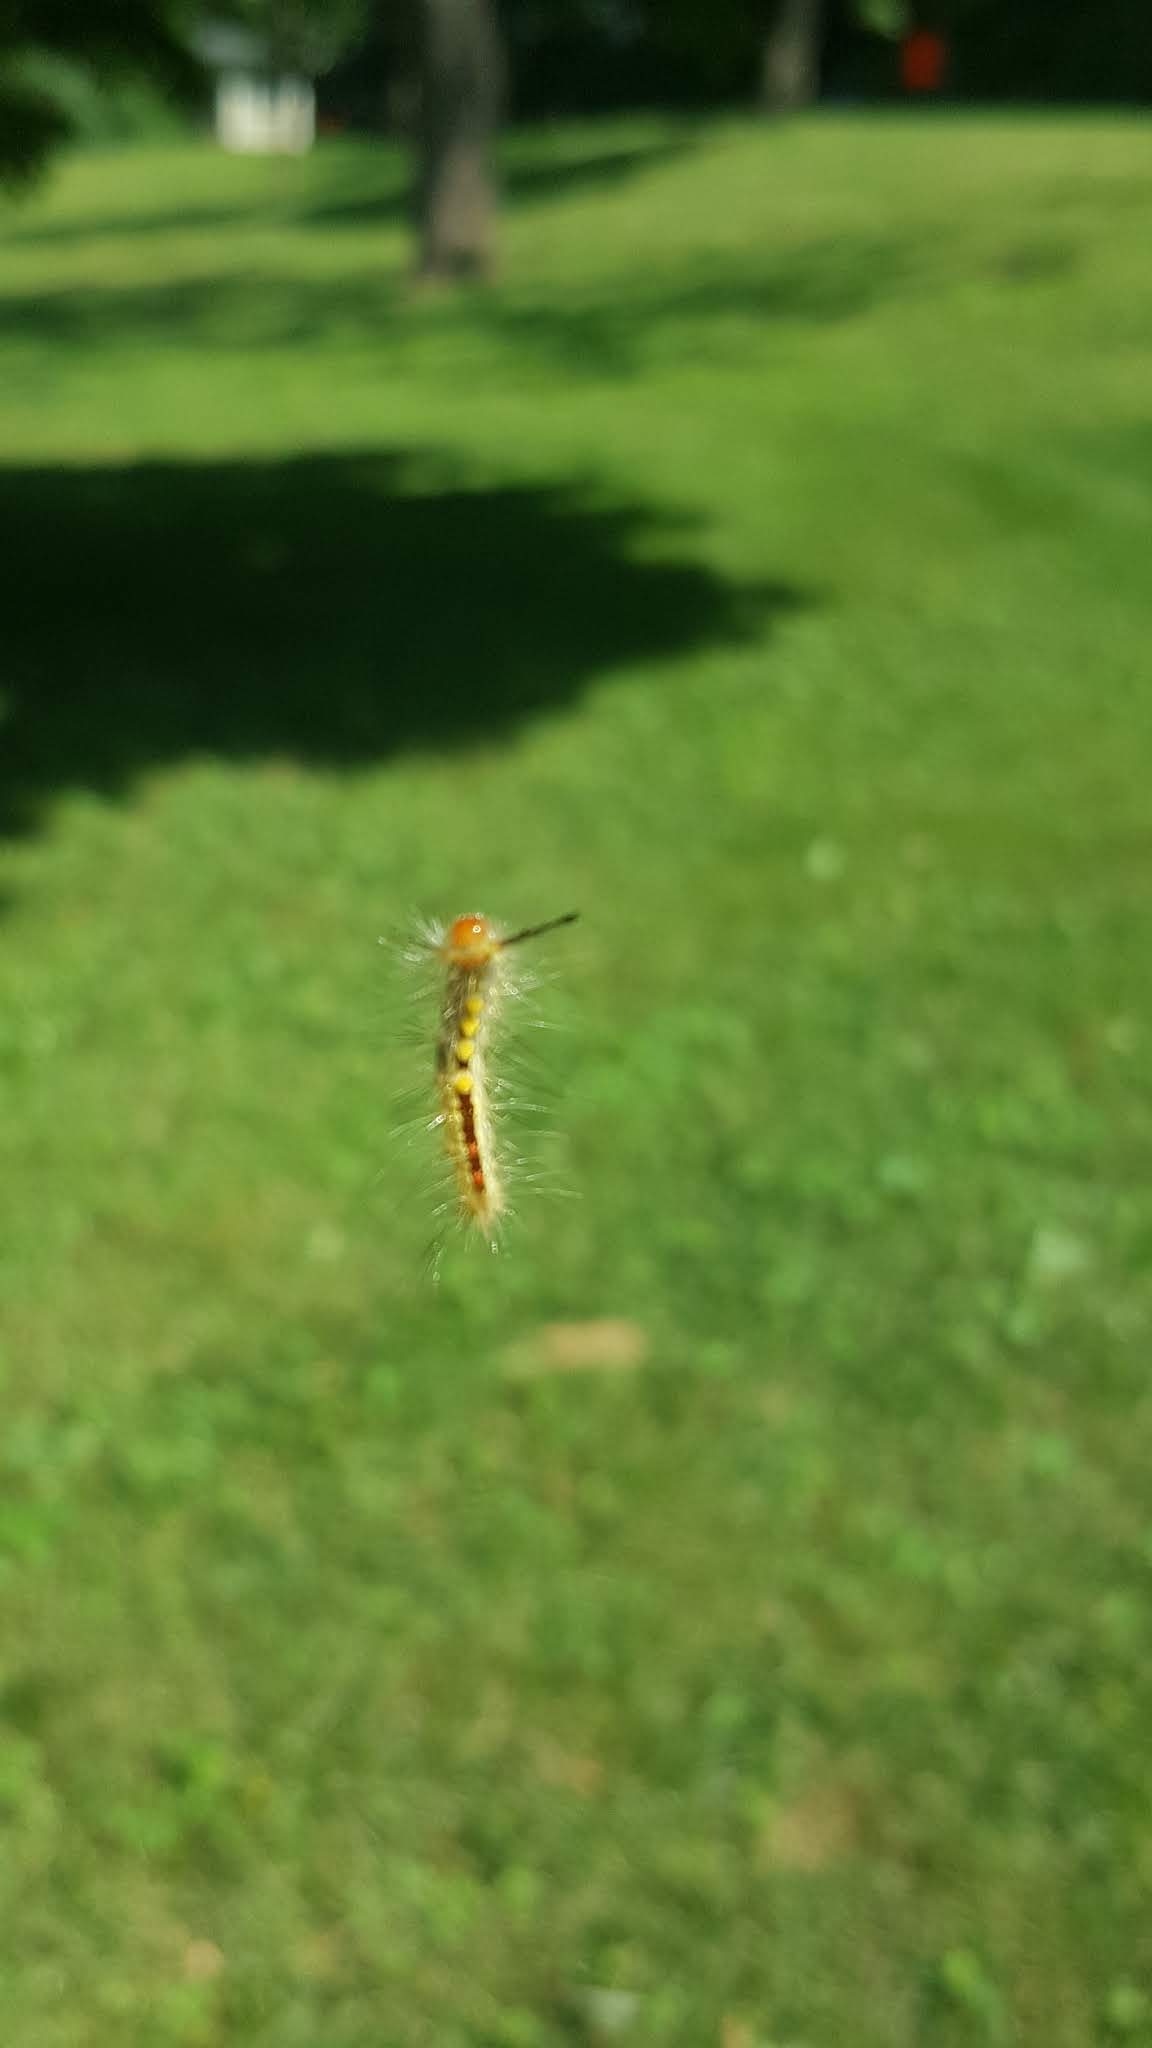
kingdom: Animalia
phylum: Arthropoda
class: Insecta
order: Lepidoptera
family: Erebidae
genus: Orgyia
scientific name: Orgyia leucostigma
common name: White-marked tussock moth
